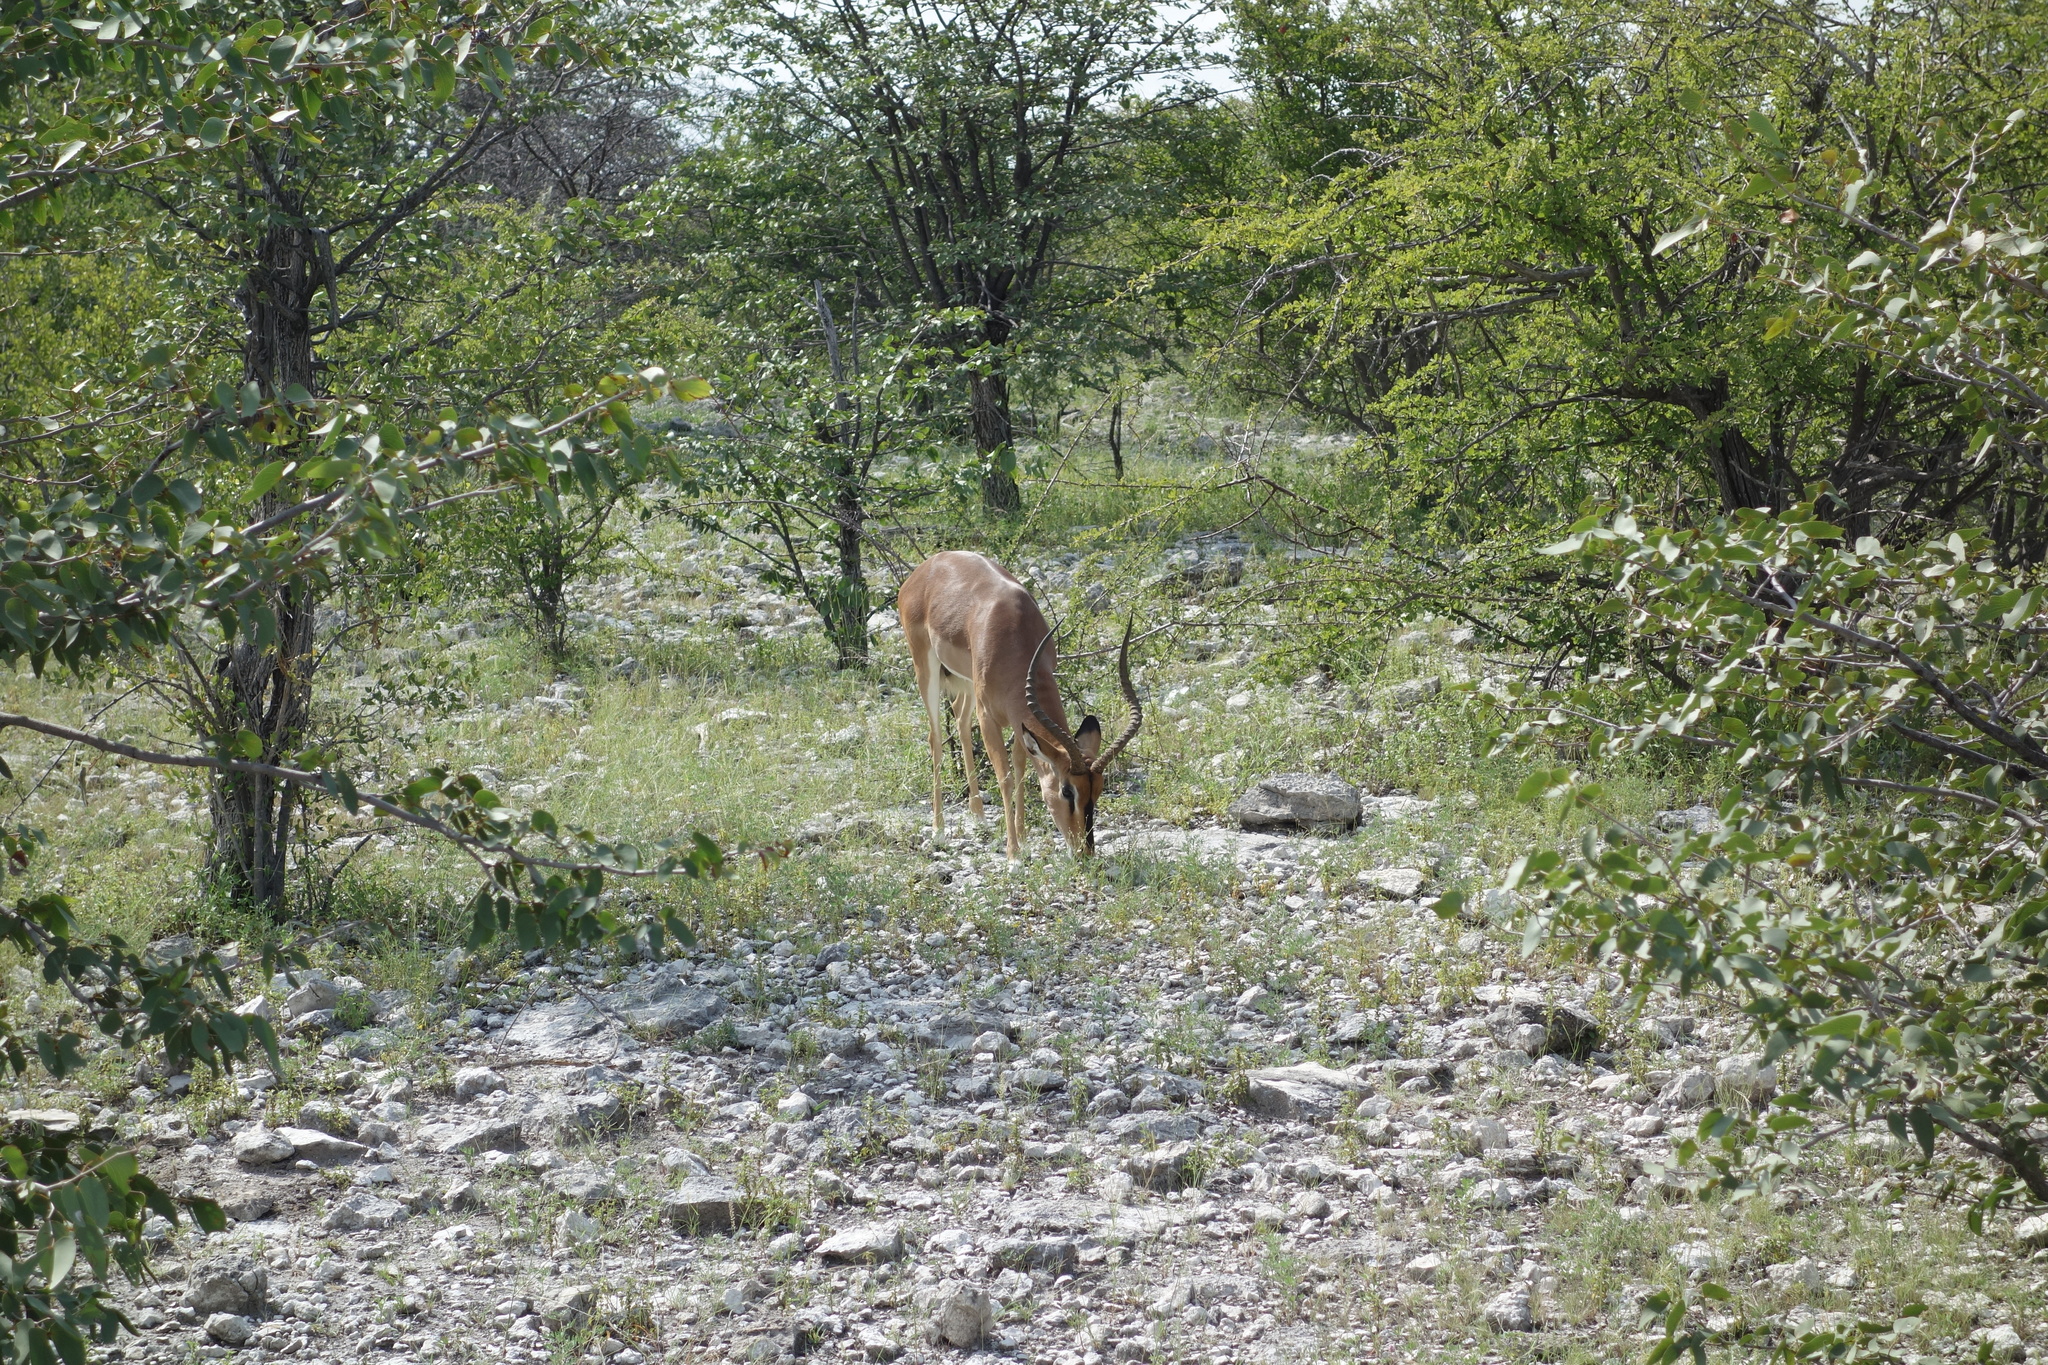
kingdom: Animalia
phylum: Chordata
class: Mammalia
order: Artiodactyla
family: Bovidae
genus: Aepyceros
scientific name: Aepyceros melampus
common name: Impala
